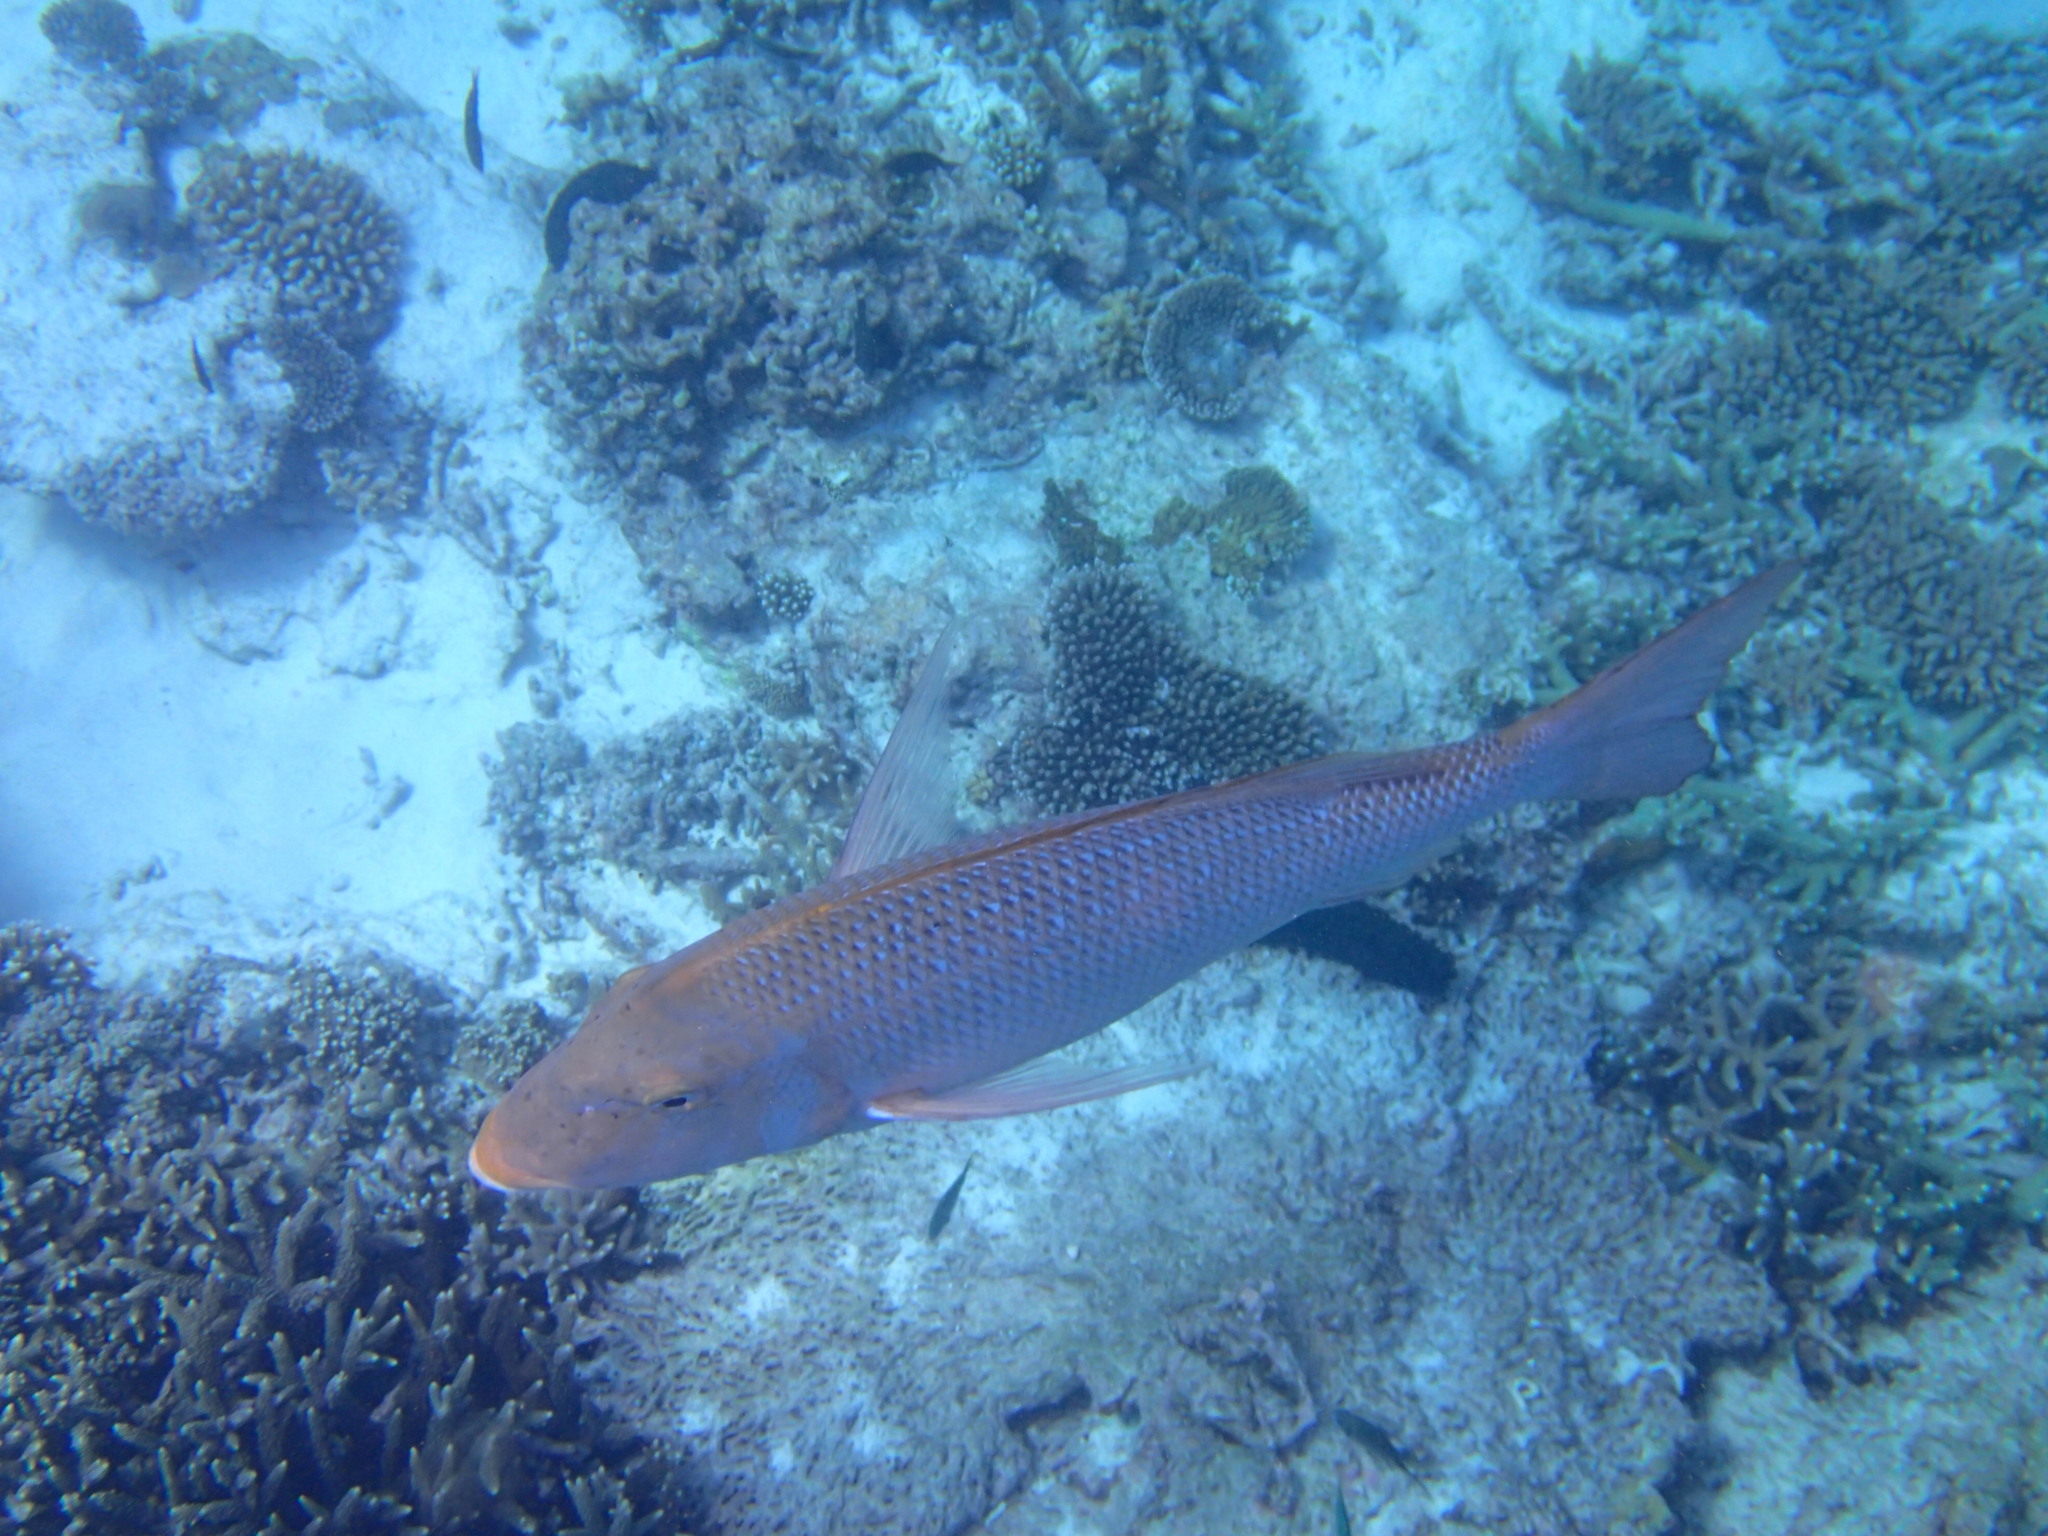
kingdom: Animalia
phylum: Chordata
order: Perciformes
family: Lethrinidae
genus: Lethrinus
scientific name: Lethrinus nebulosus
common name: Spangled emperor
